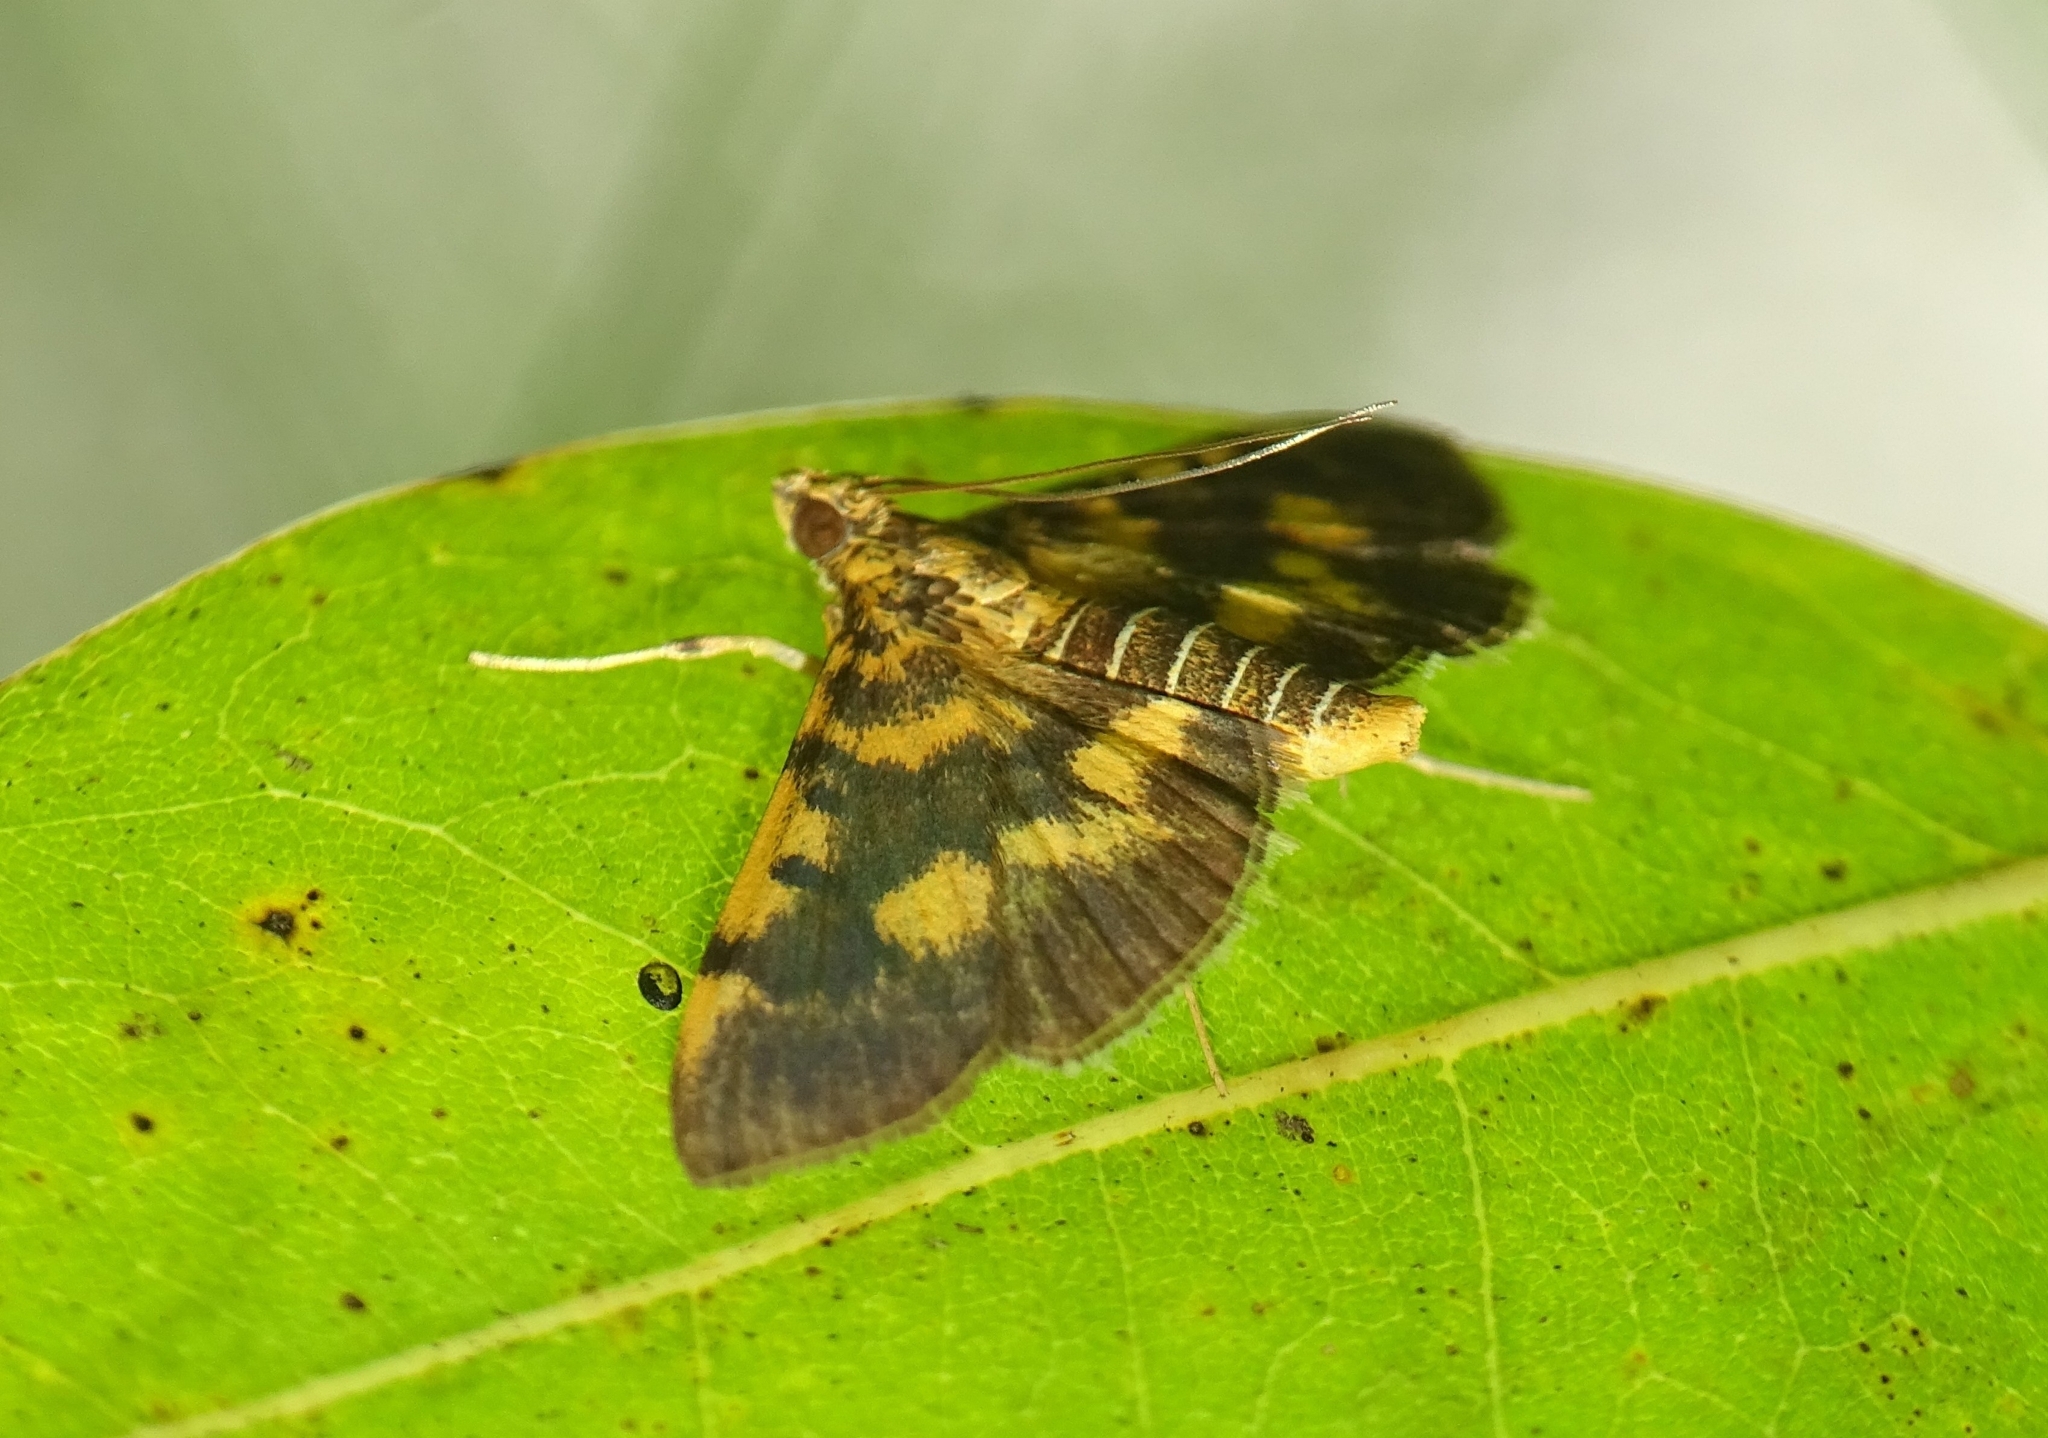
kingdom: Animalia
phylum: Arthropoda
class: Insecta
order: Lepidoptera
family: Crambidae
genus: Omiodes
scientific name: Omiodes diemenalis
